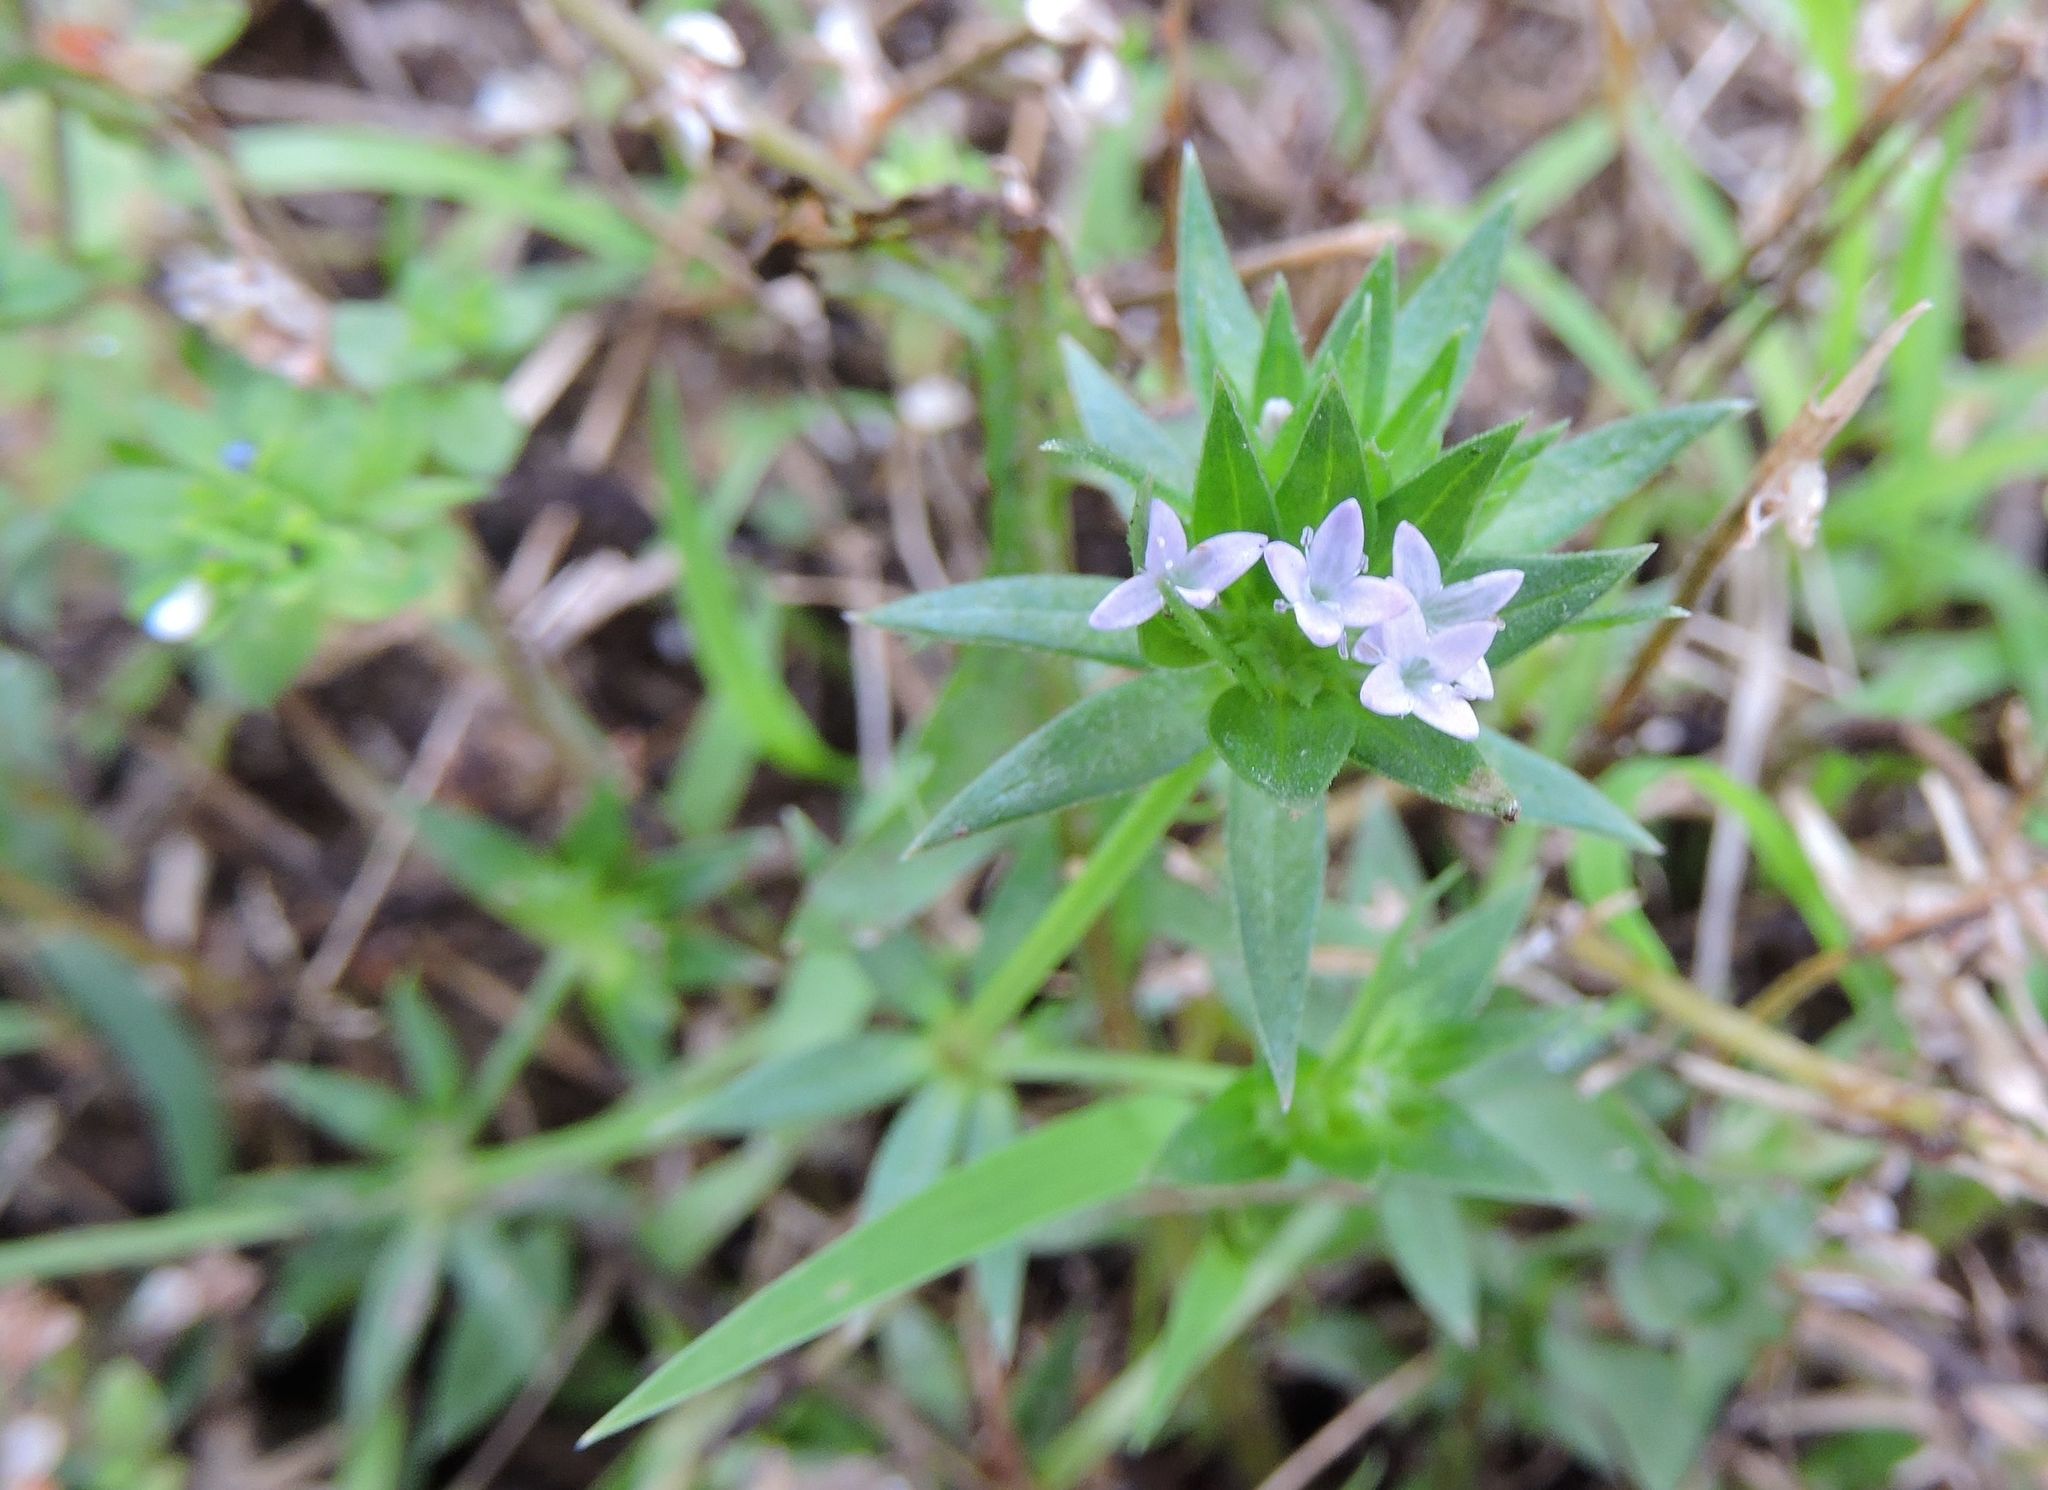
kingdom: Plantae
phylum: Tracheophyta
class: Magnoliopsida
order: Gentianales
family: Rubiaceae
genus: Sherardia
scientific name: Sherardia arvensis
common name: Field madder
